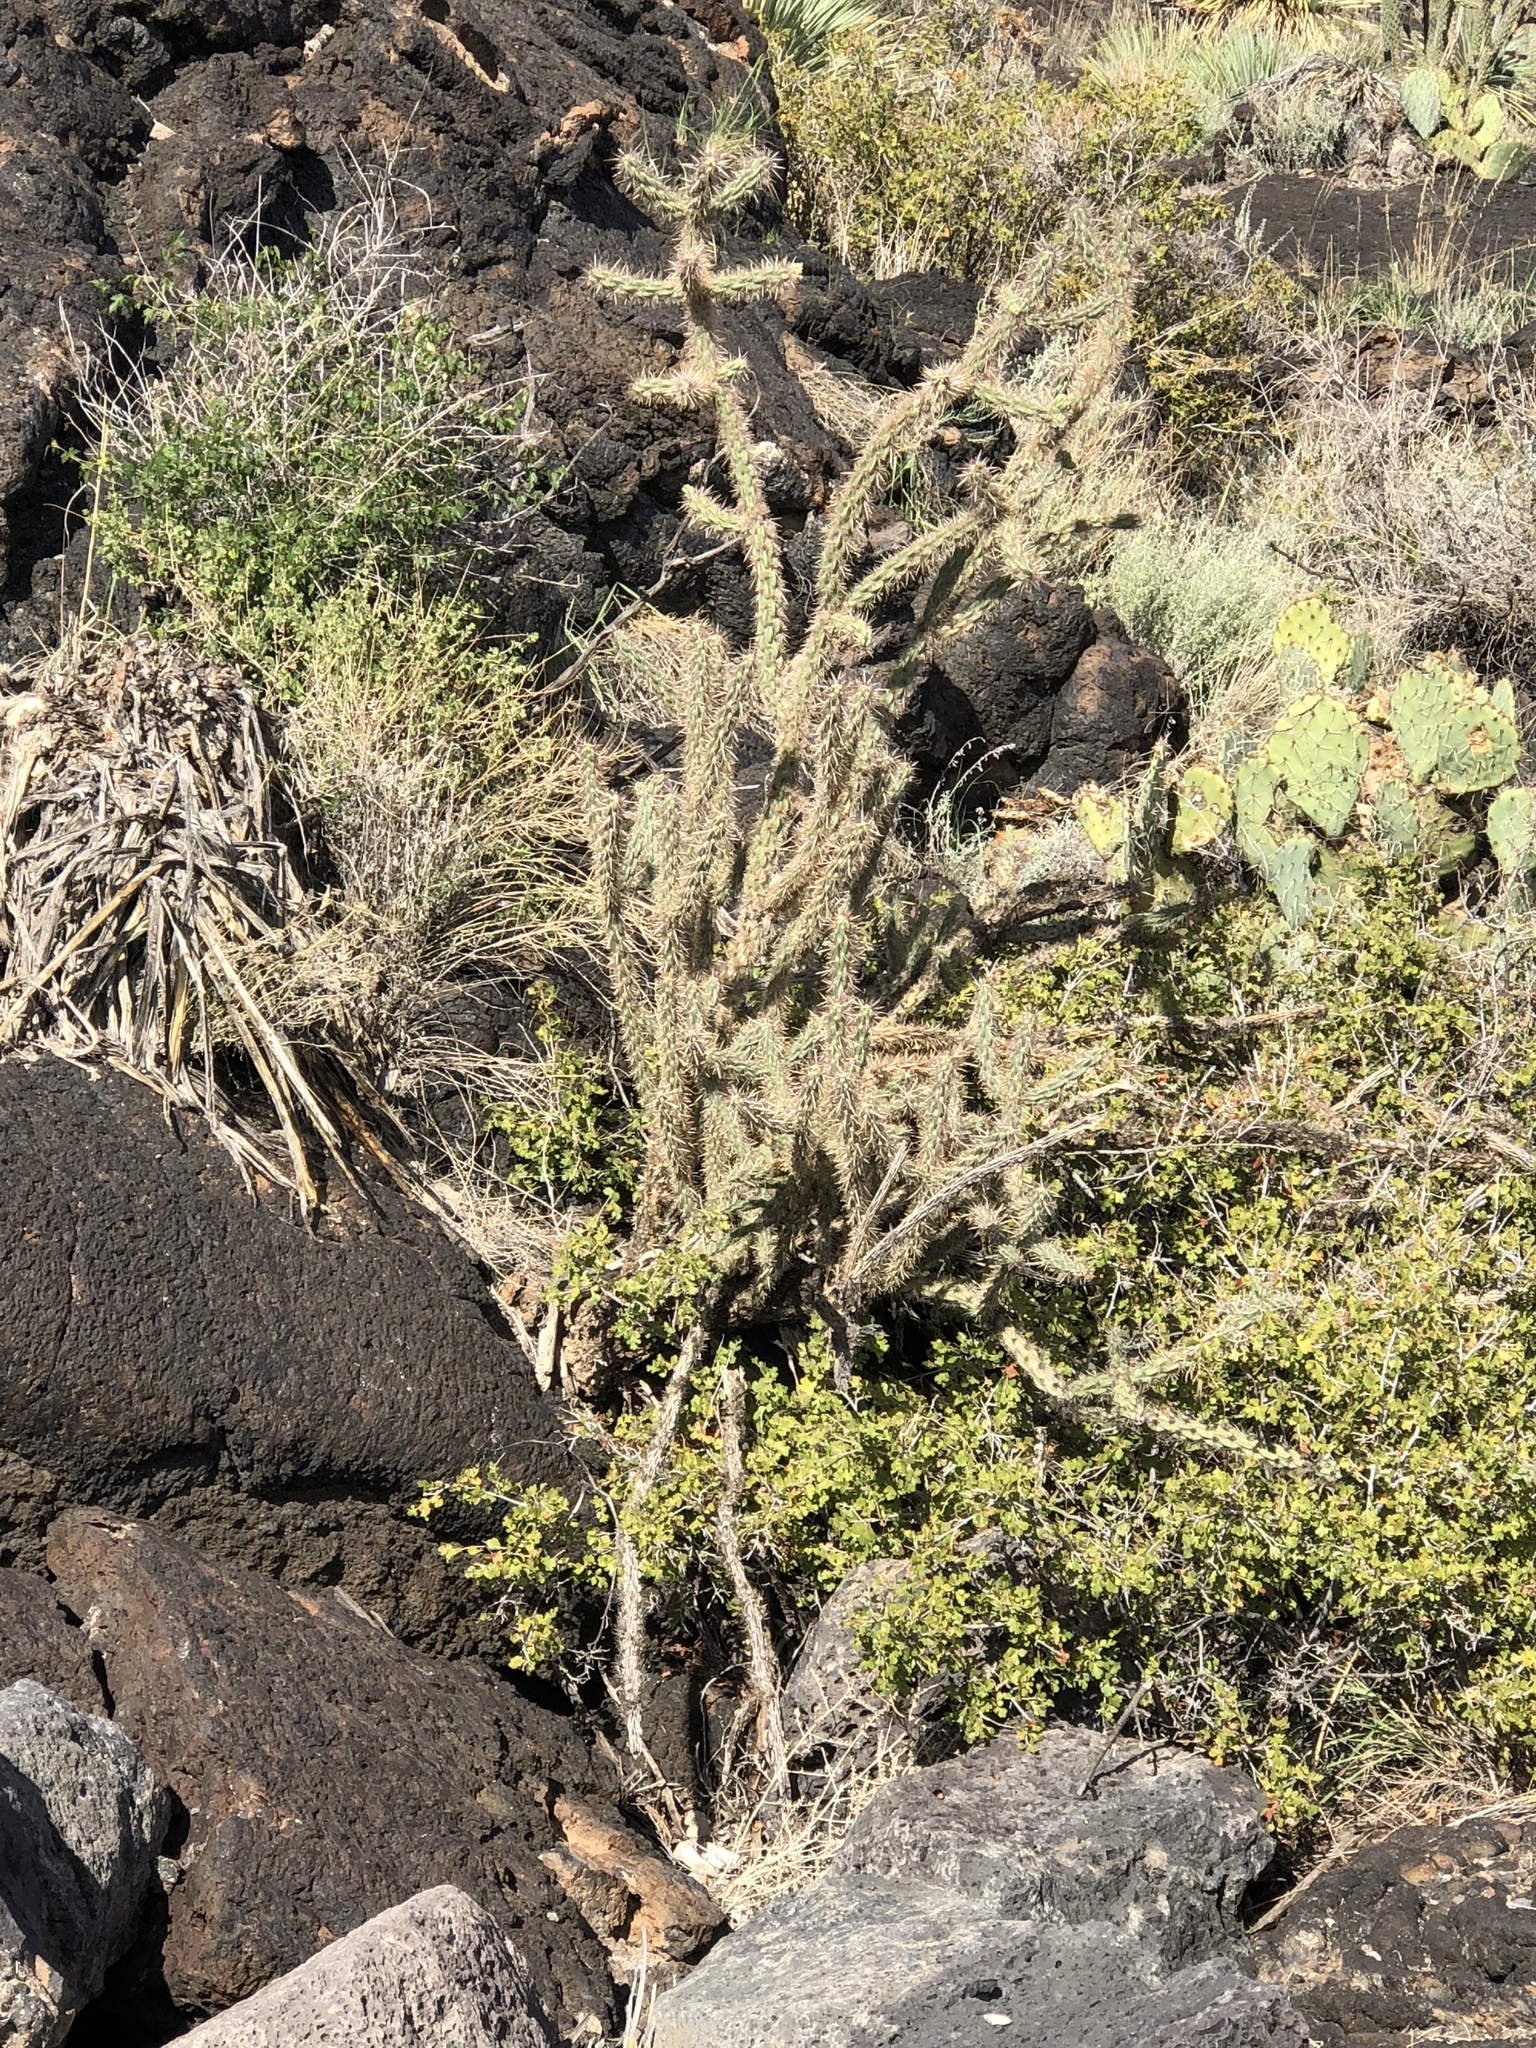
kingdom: Plantae
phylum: Tracheophyta
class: Magnoliopsida
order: Caryophyllales
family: Cactaceae
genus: Cylindropuntia
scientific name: Cylindropuntia imbricata
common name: Candelabrum cactus
